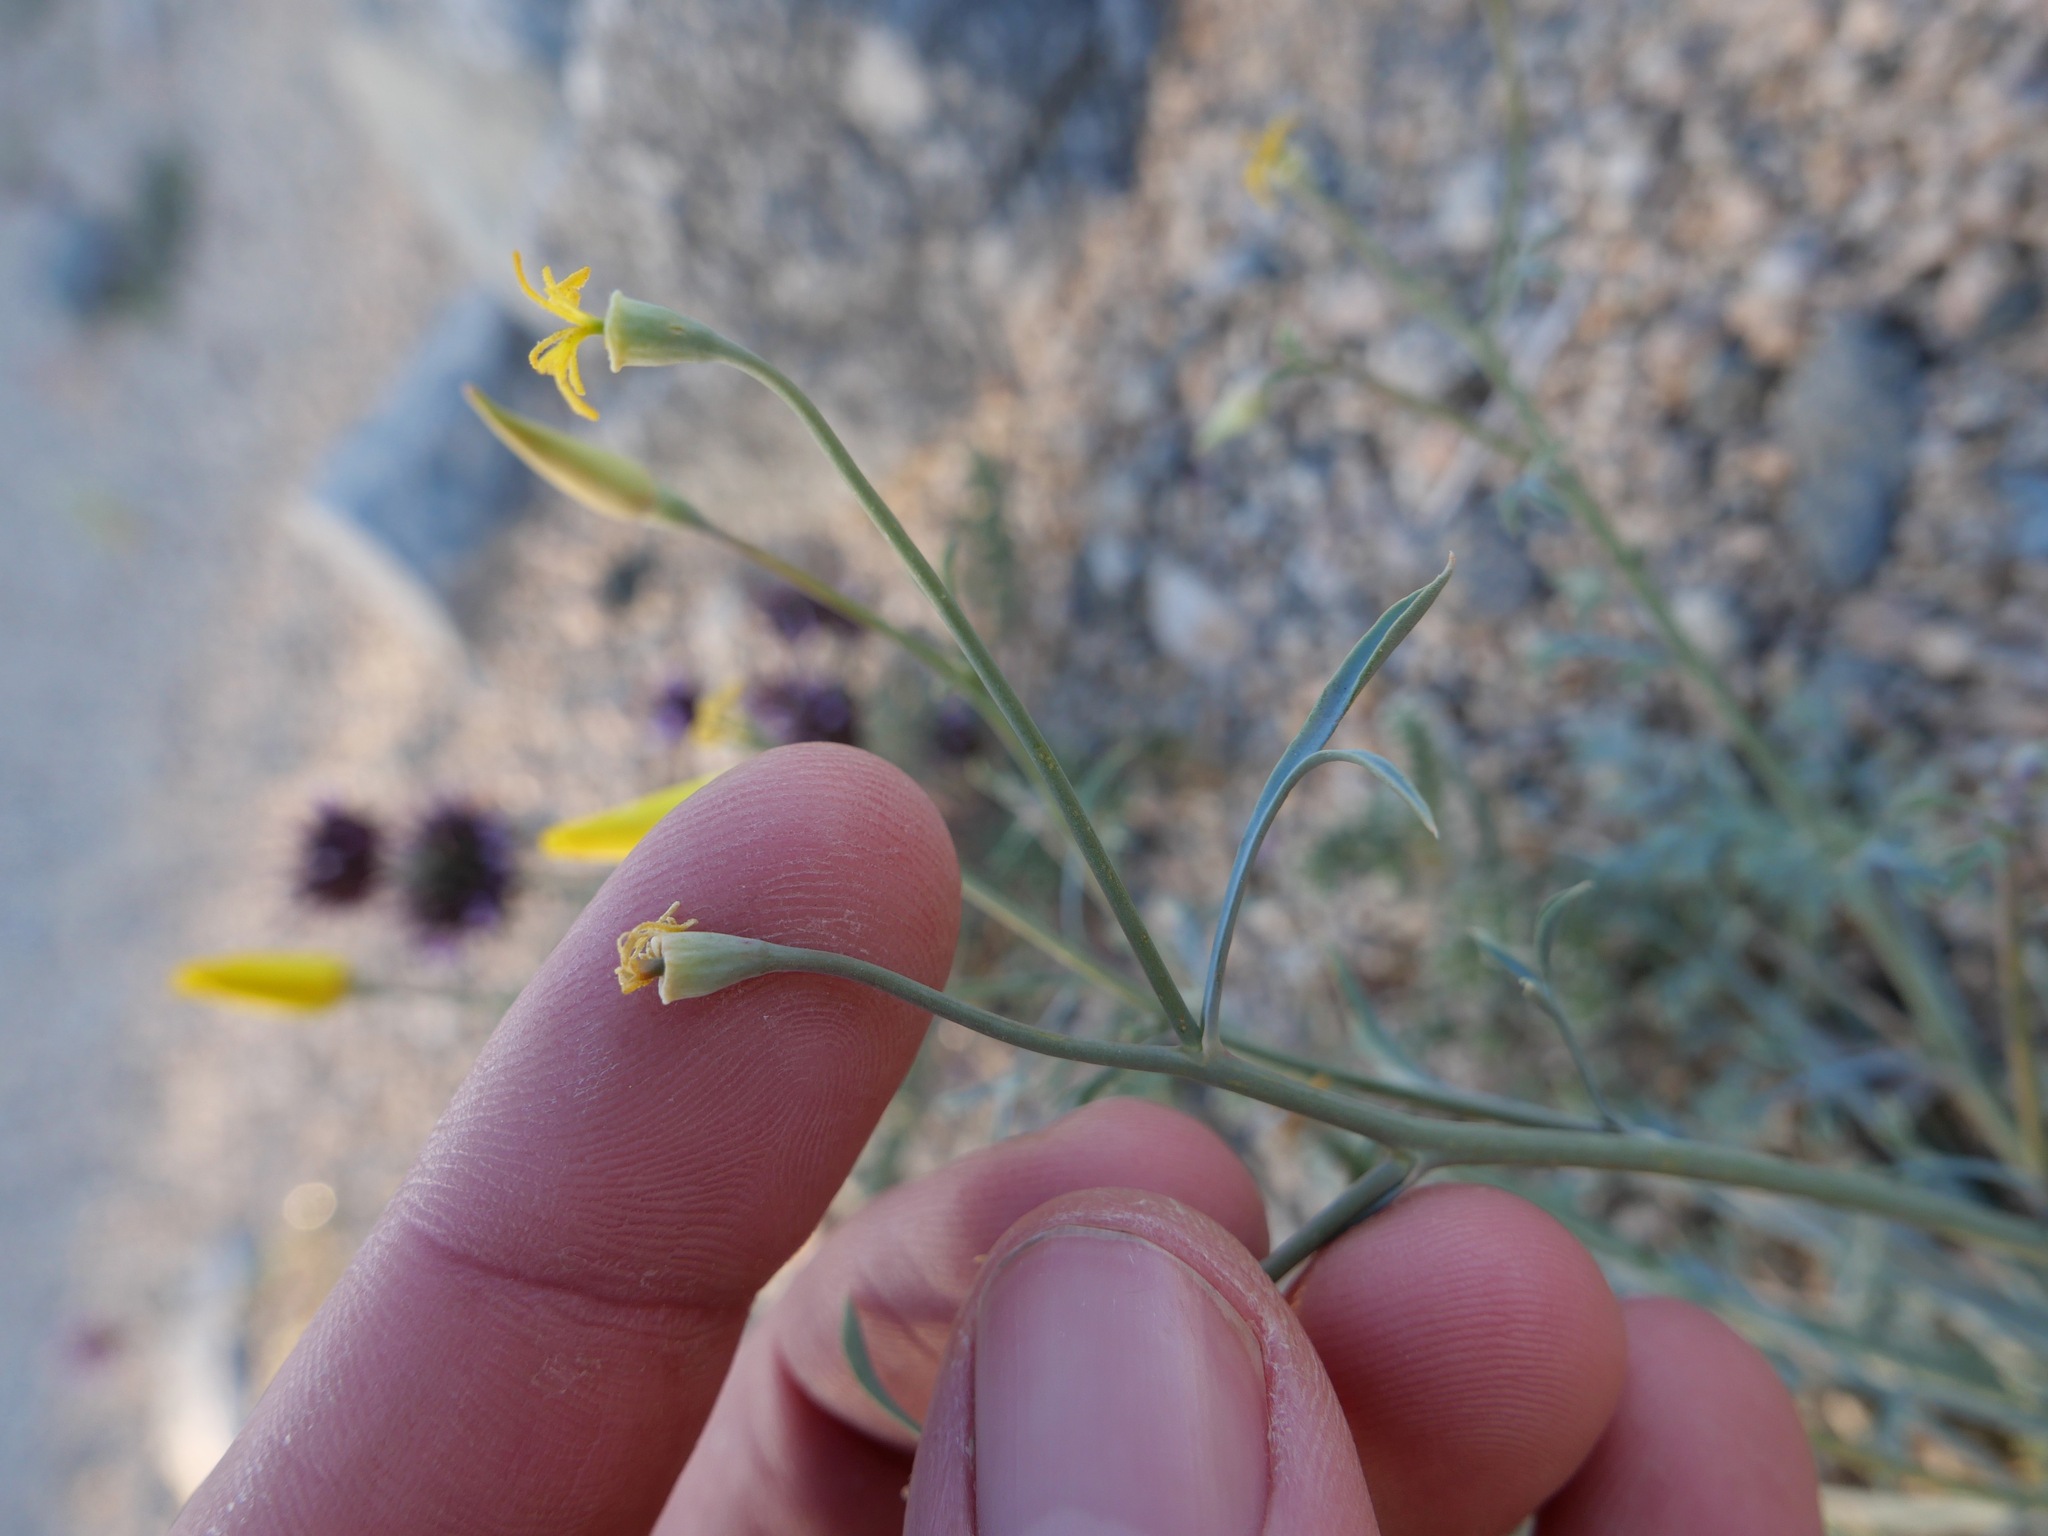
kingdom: Plantae
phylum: Tracheophyta
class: Magnoliopsida
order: Ranunculales
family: Papaveraceae
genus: Eschscholzia
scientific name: Eschscholzia papastillii
